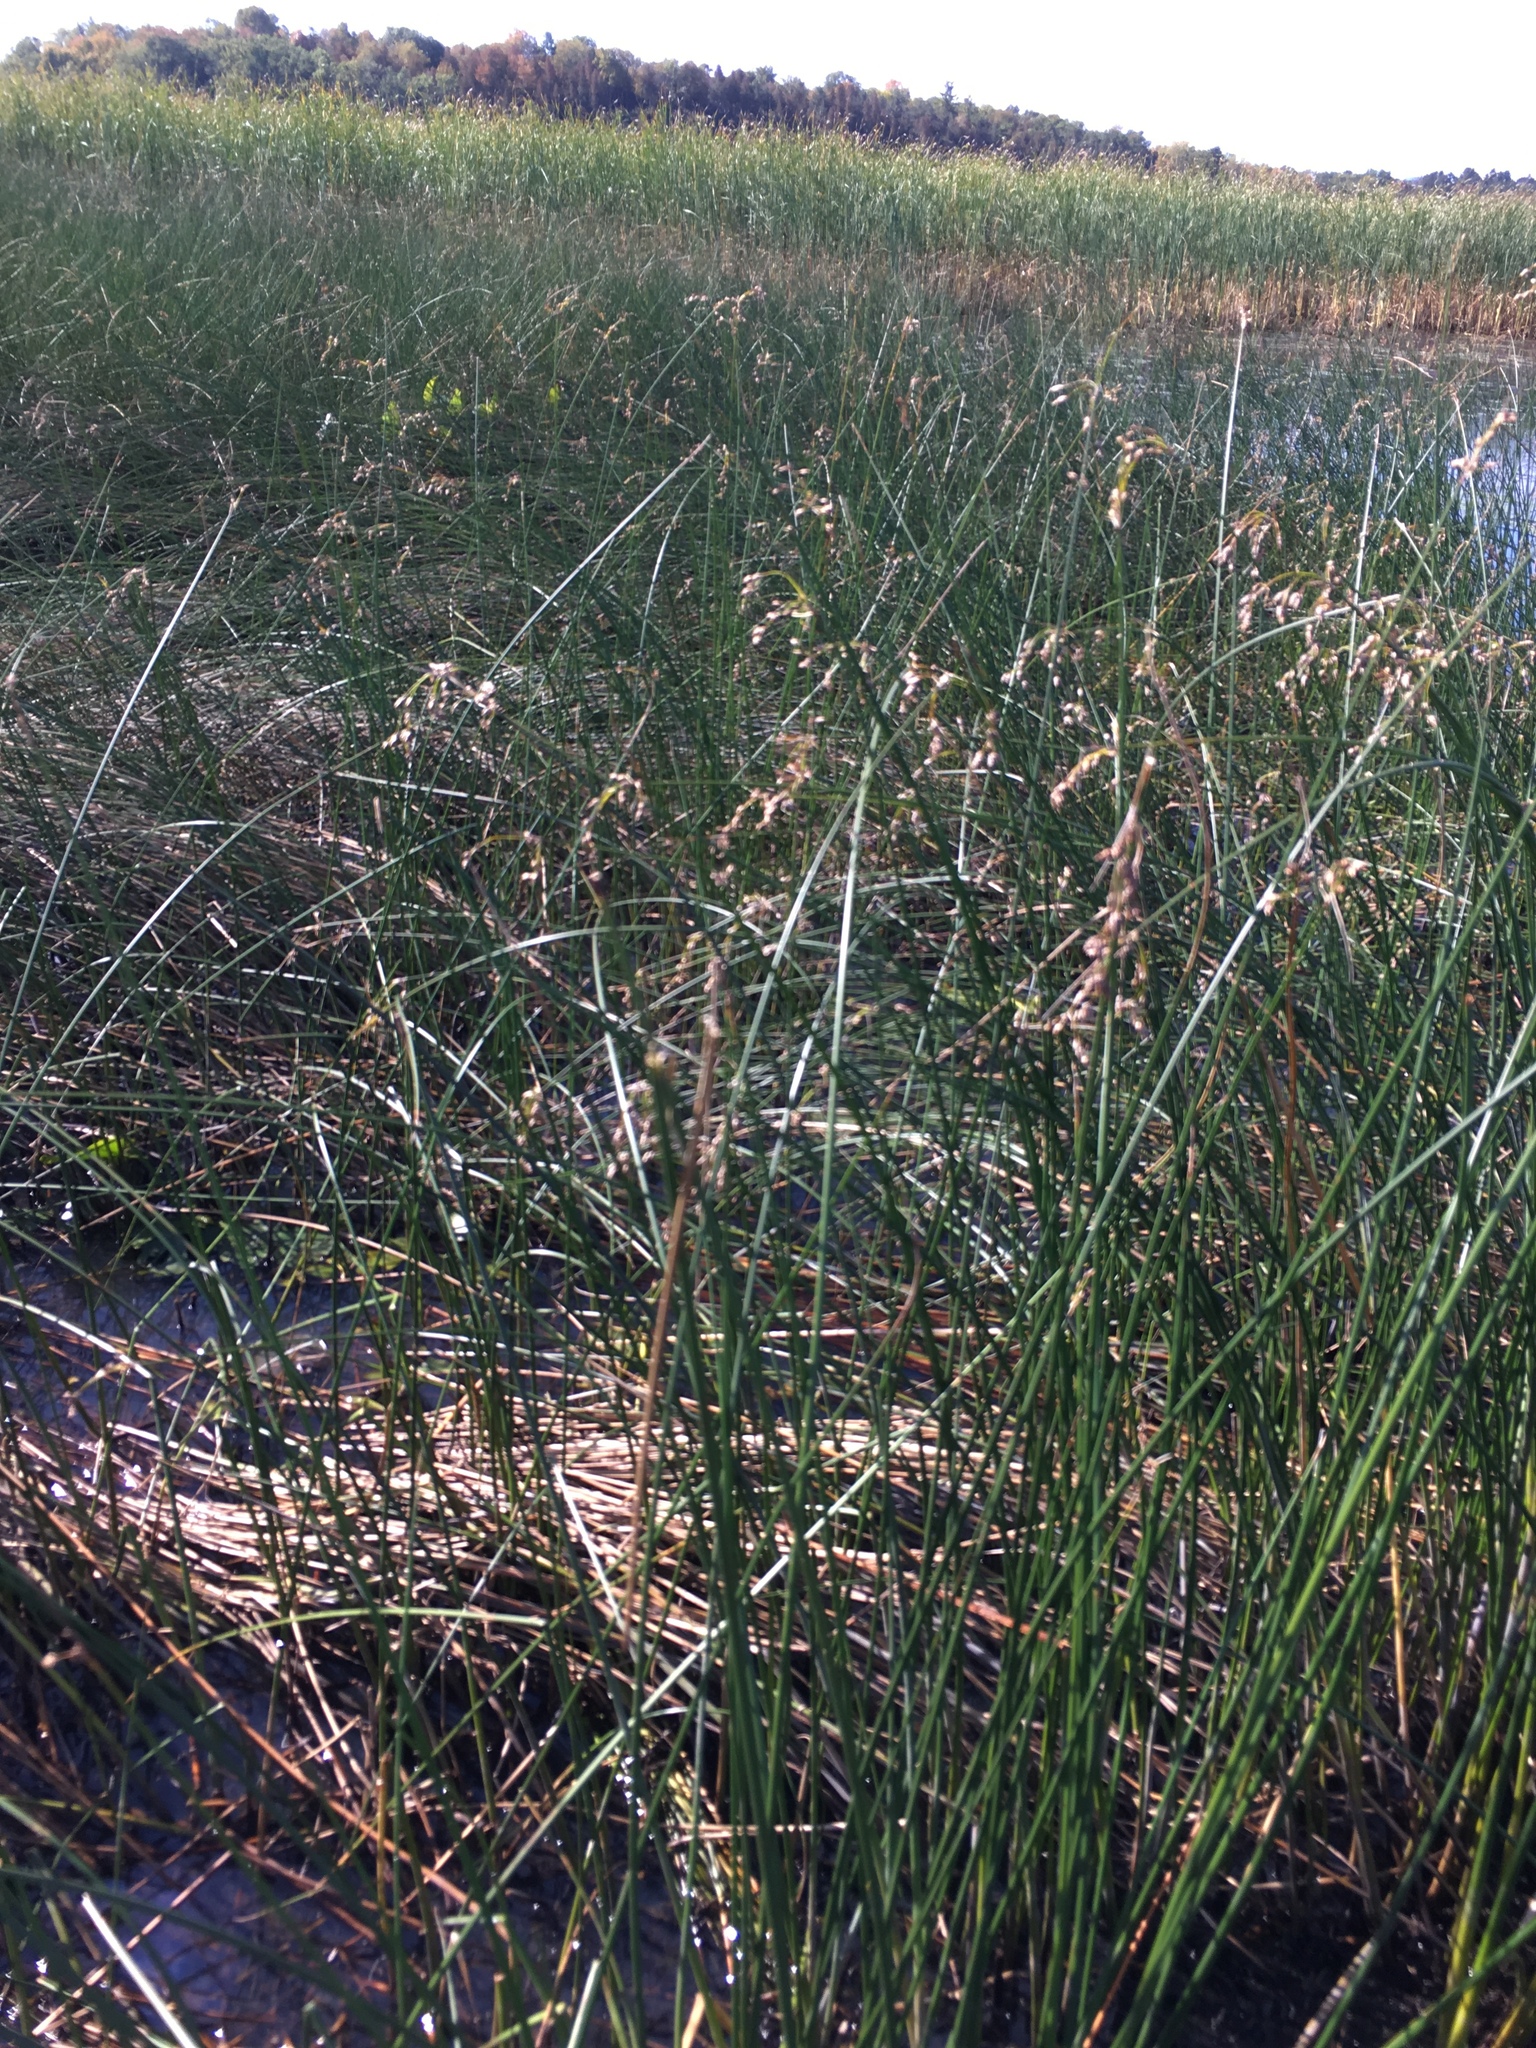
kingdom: Plantae
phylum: Tracheophyta
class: Liliopsida
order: Poales
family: Cyperaceae
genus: Schoenoplectus
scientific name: Schoenoplectus acutus
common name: Hardstem bulrush
